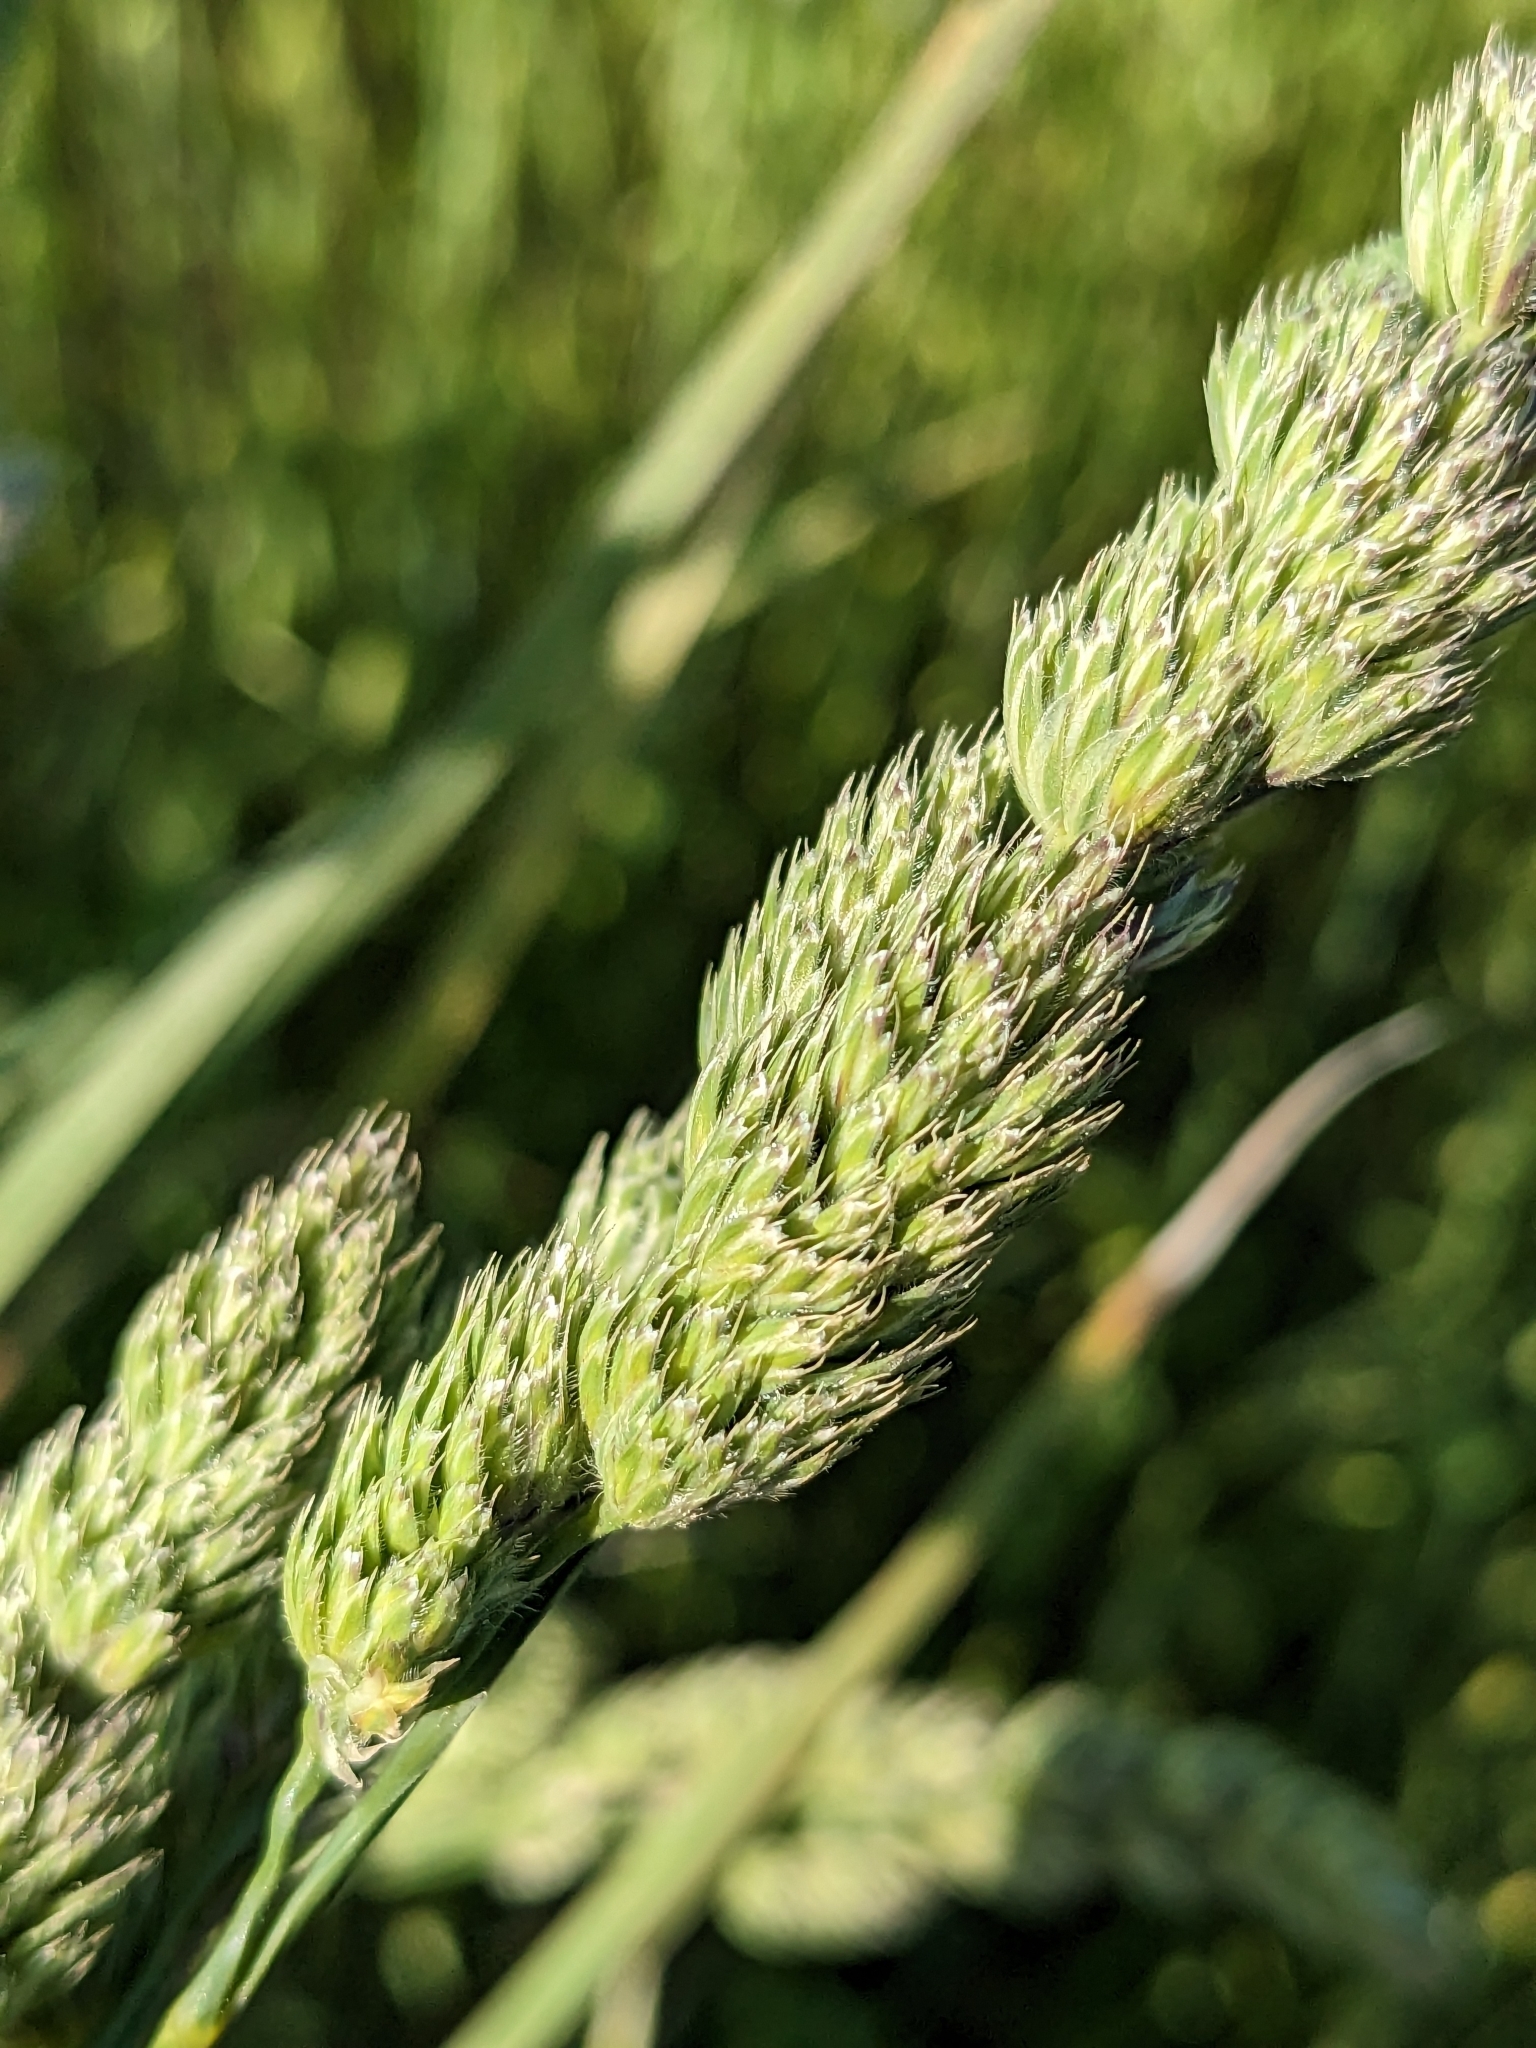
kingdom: Plantae
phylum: Tracheophyta
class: Liliopsida
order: Poales
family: Poaceae
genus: Dactylis
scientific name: Dactylis glomerata
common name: Orchardgrass
